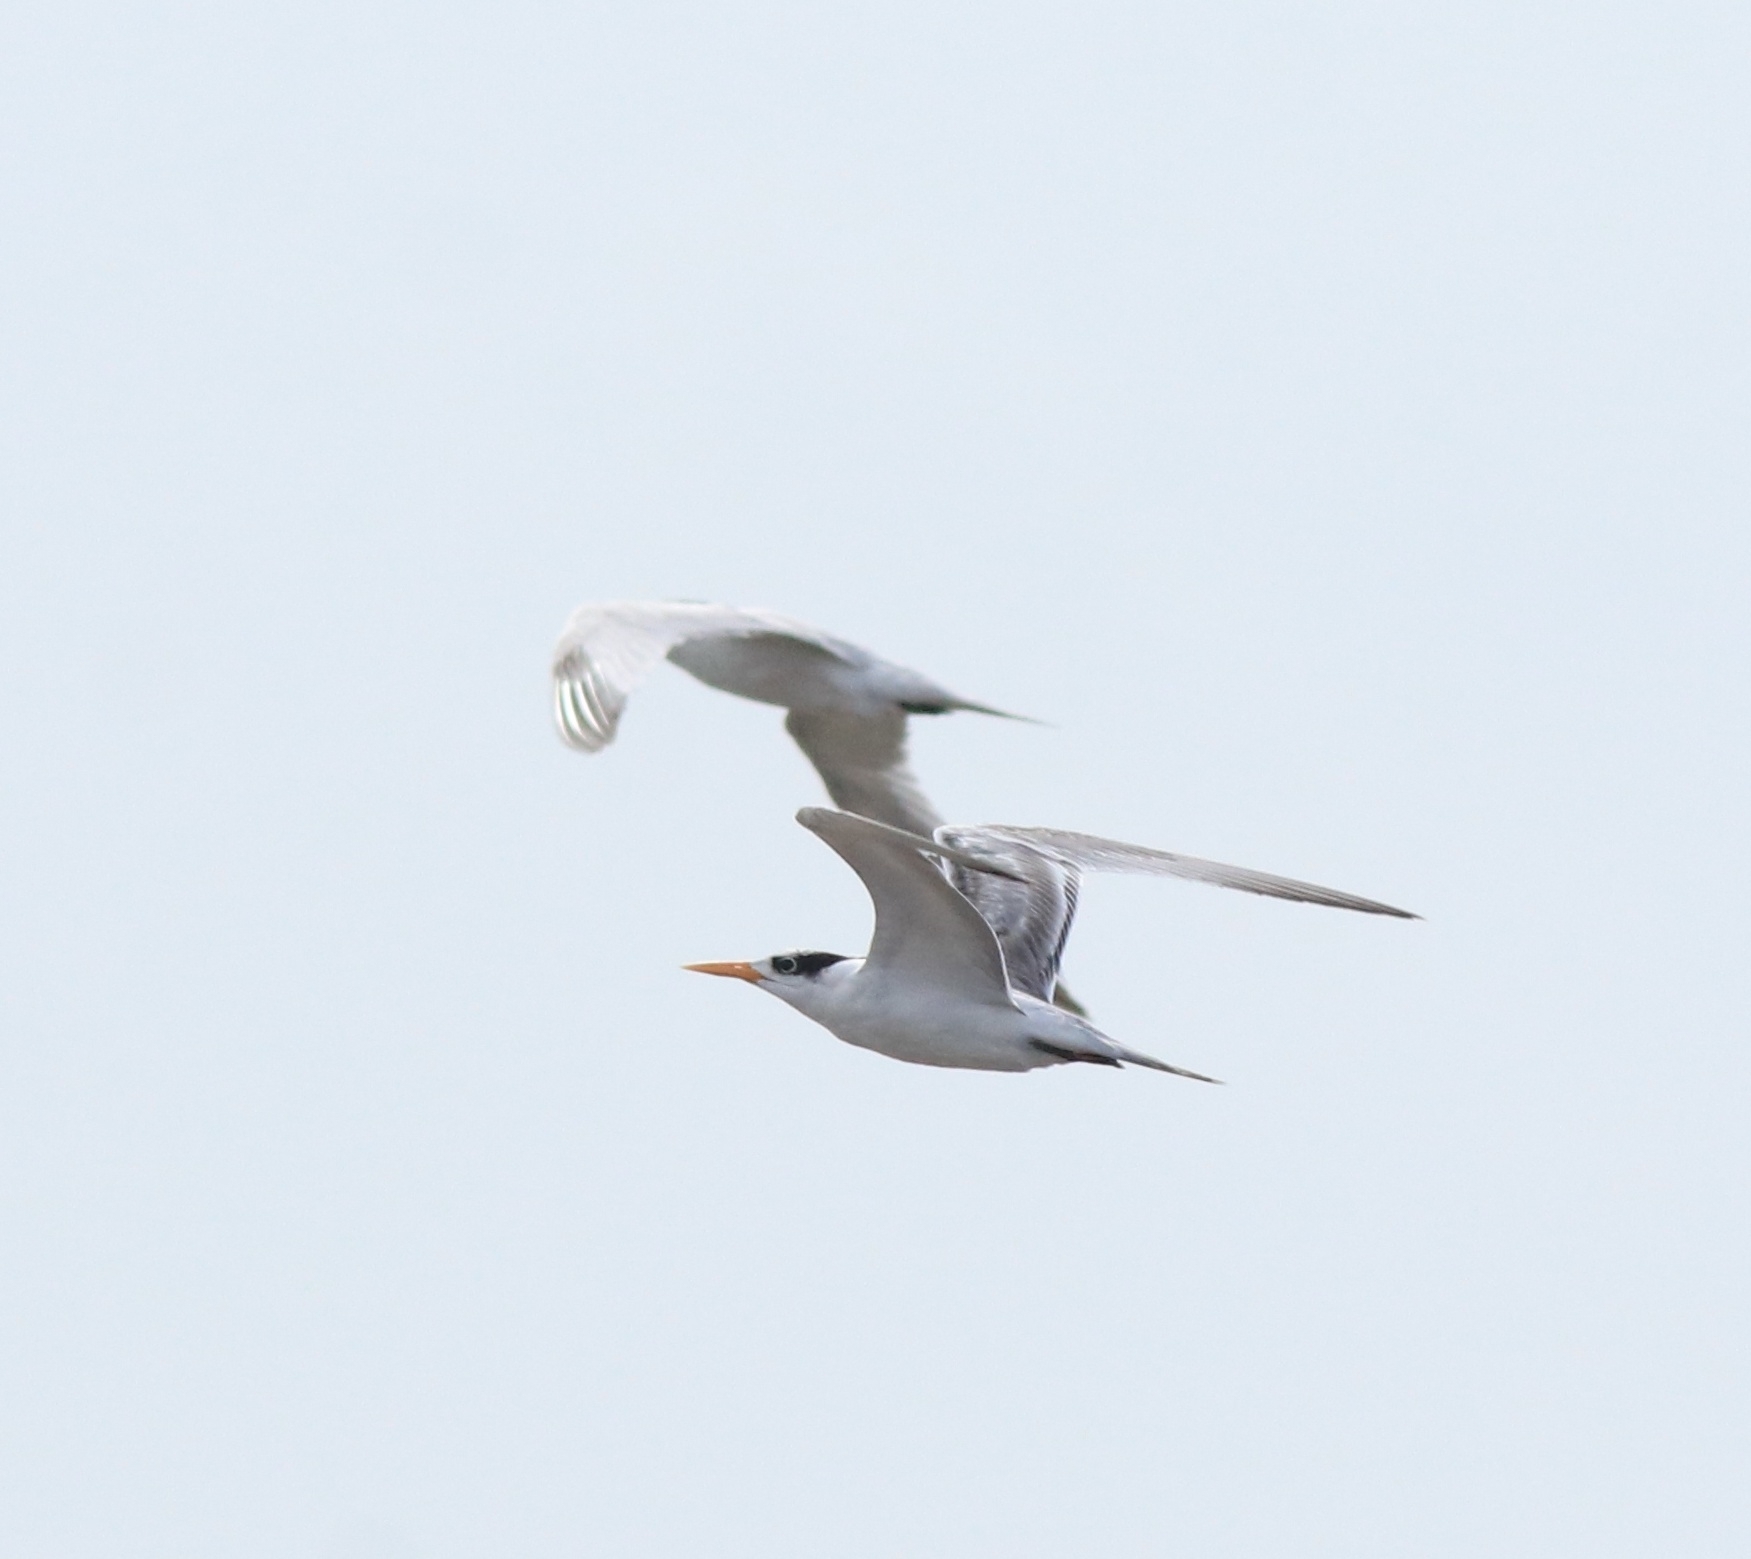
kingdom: Animalia
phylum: Chordata
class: Aves
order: Charadriiformes
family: Laridae
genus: Thalasseus
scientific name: Thalasseus bengalensis
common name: Lesser crested tern
